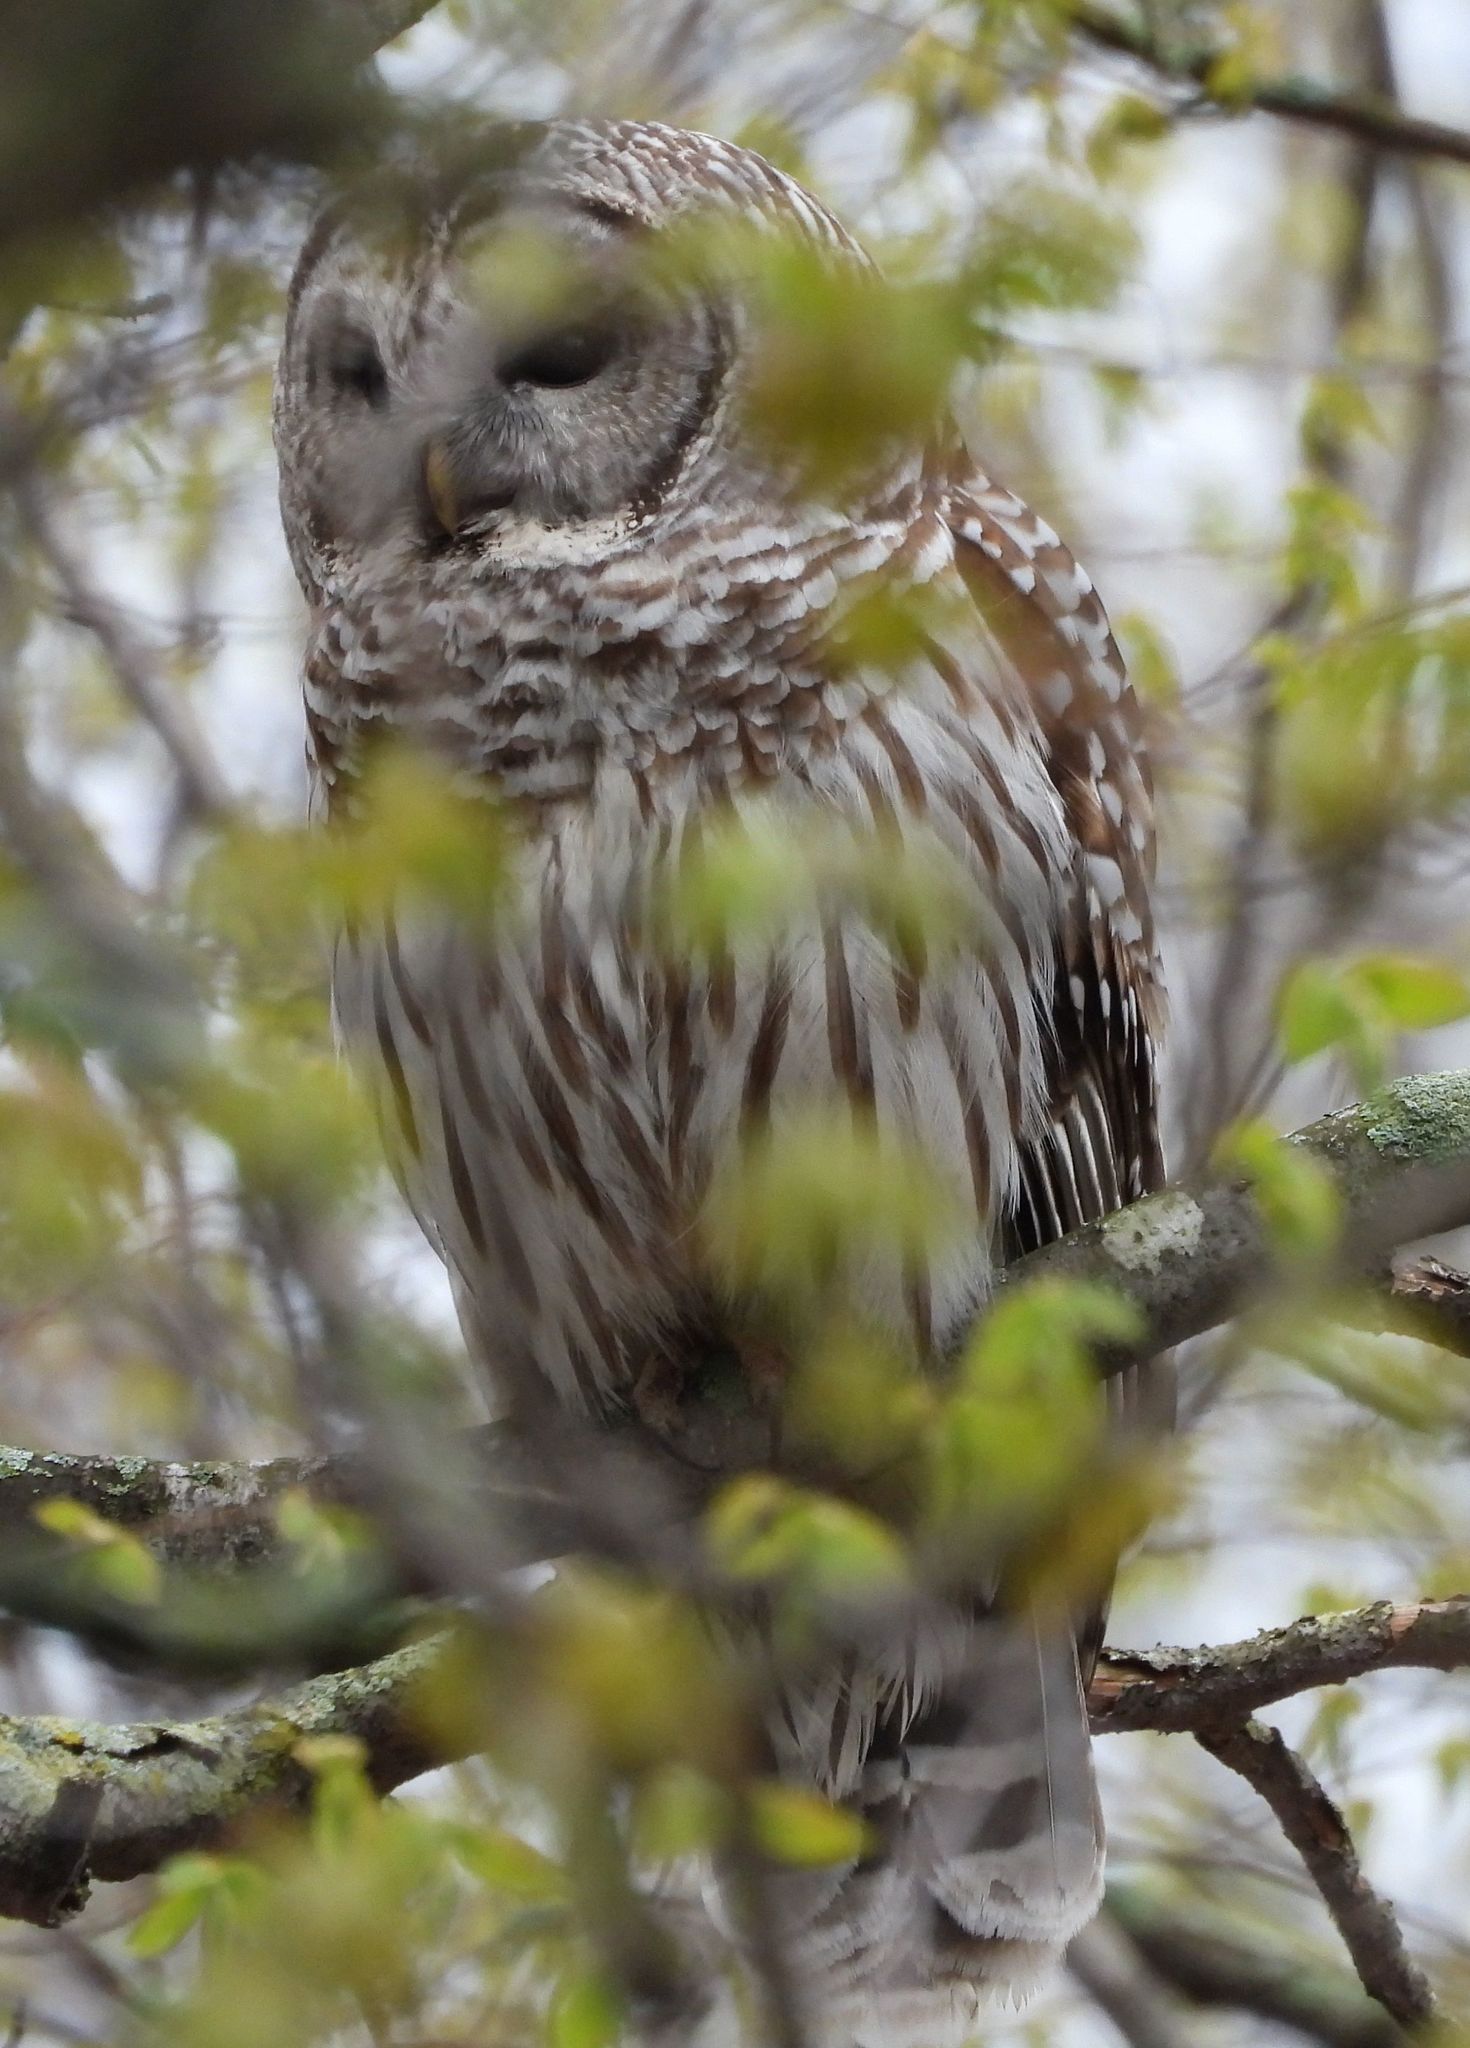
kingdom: Animalia
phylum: Chordata
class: Aves
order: Strigiformes
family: Strigidae
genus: Strix
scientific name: Strix varia
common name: Barred owl
